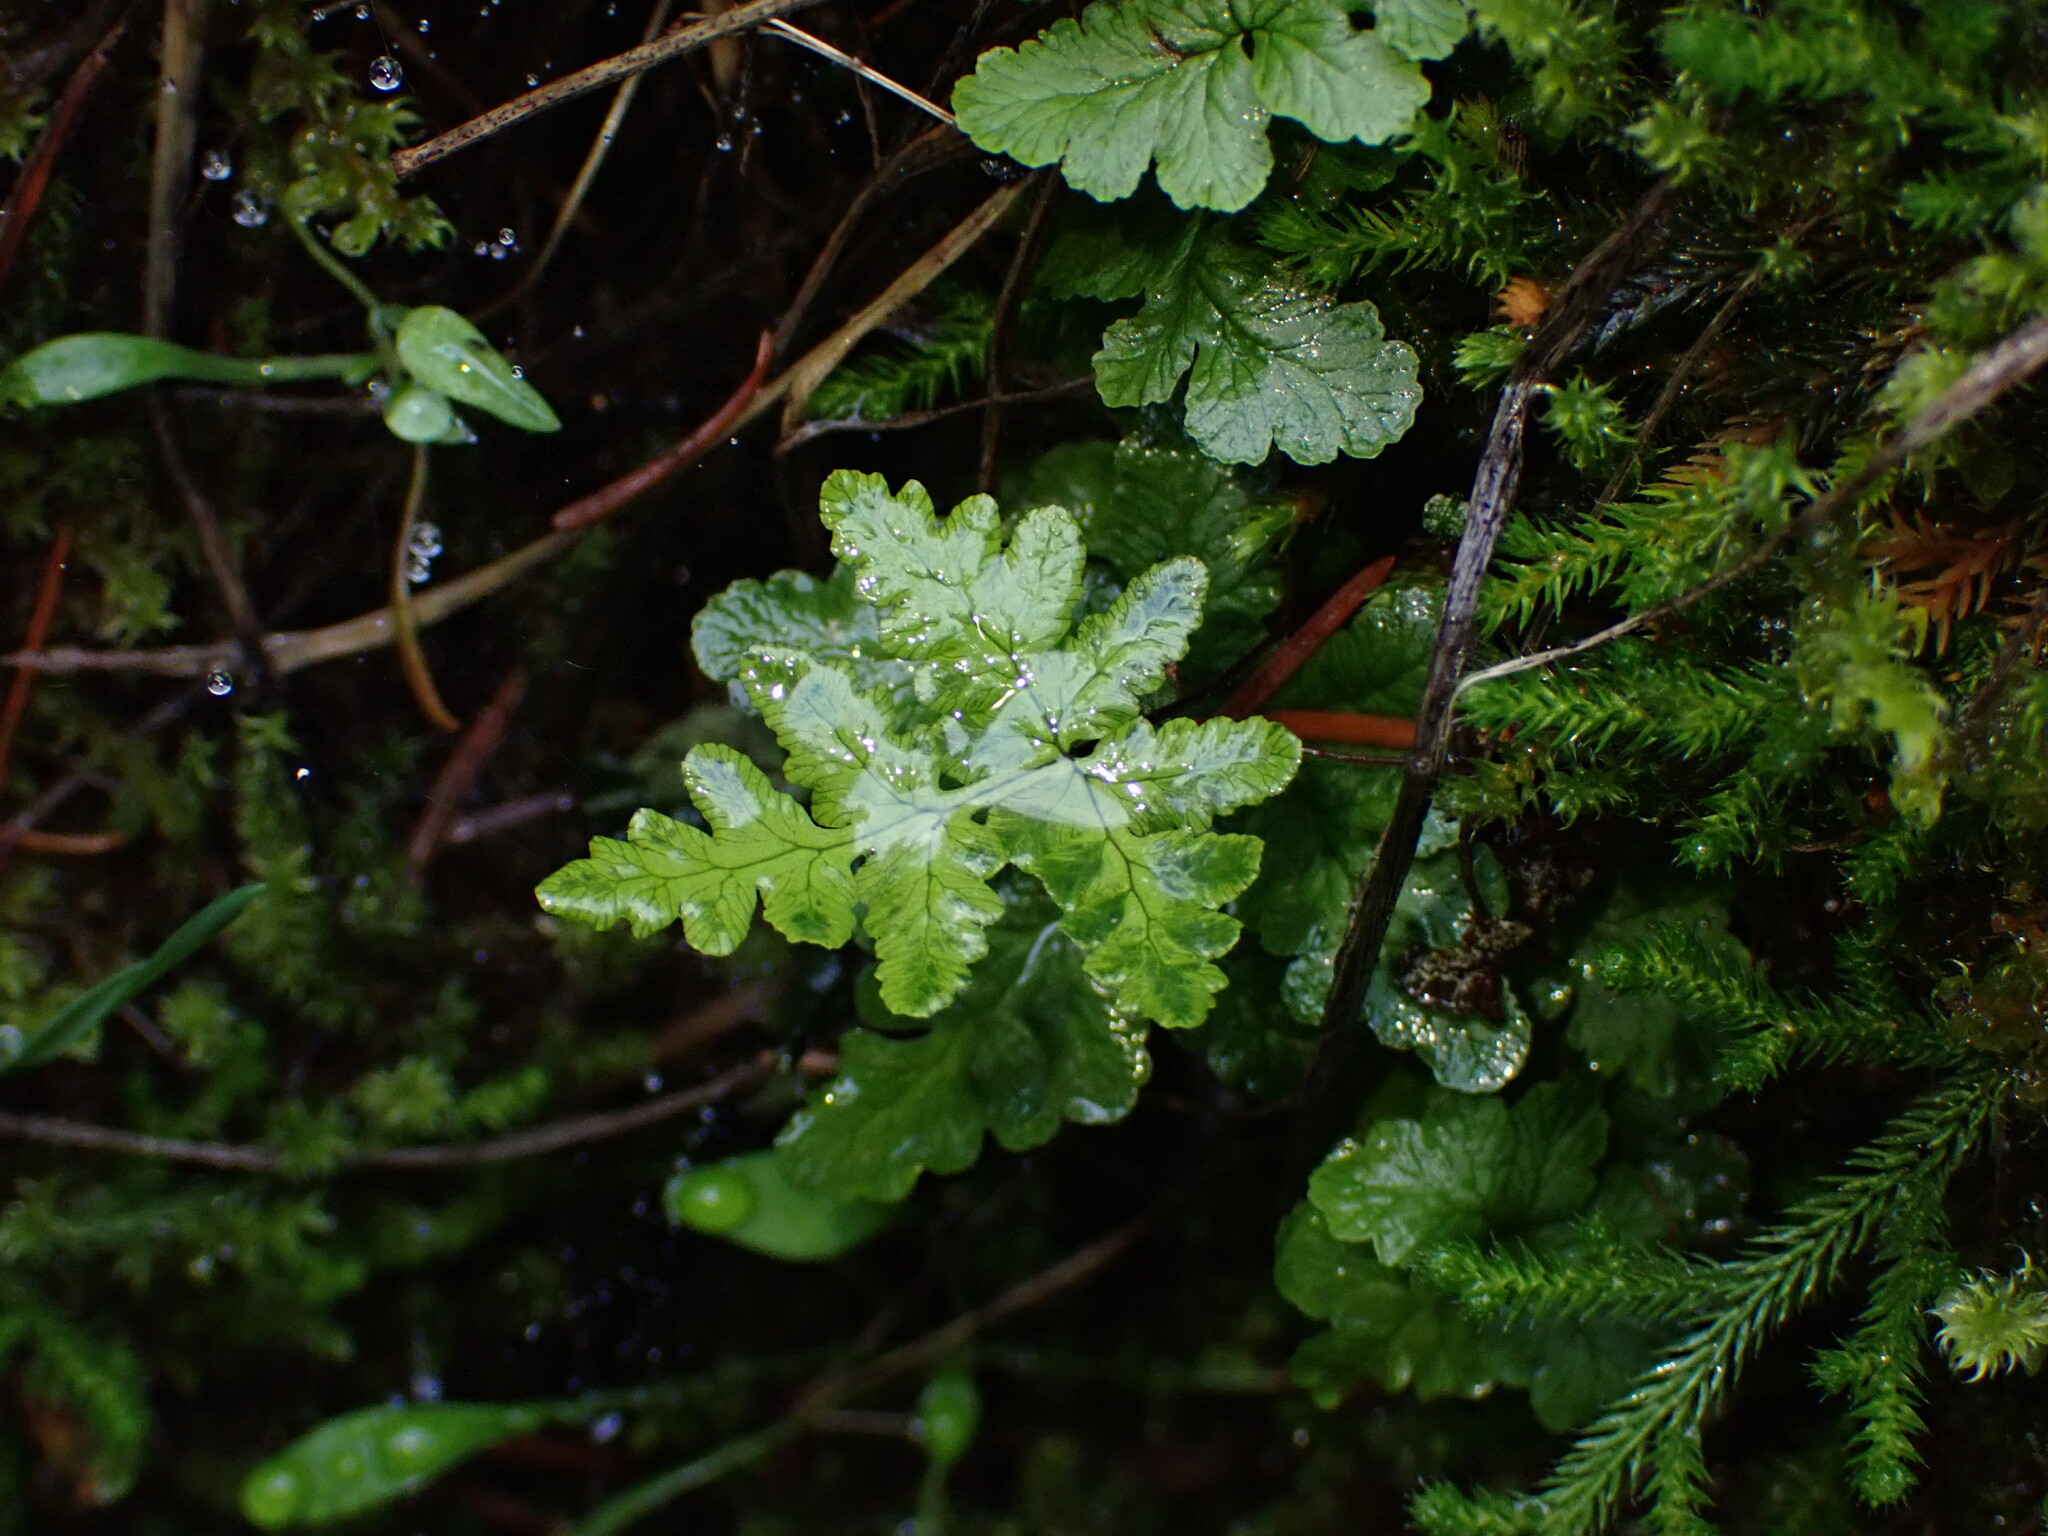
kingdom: Plantae
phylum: Tracheophyta
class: Polypodiopsida
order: Polypodiales
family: Pteridaceae
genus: Pentagramma
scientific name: Pentagramma triangularis
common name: Gold fern
